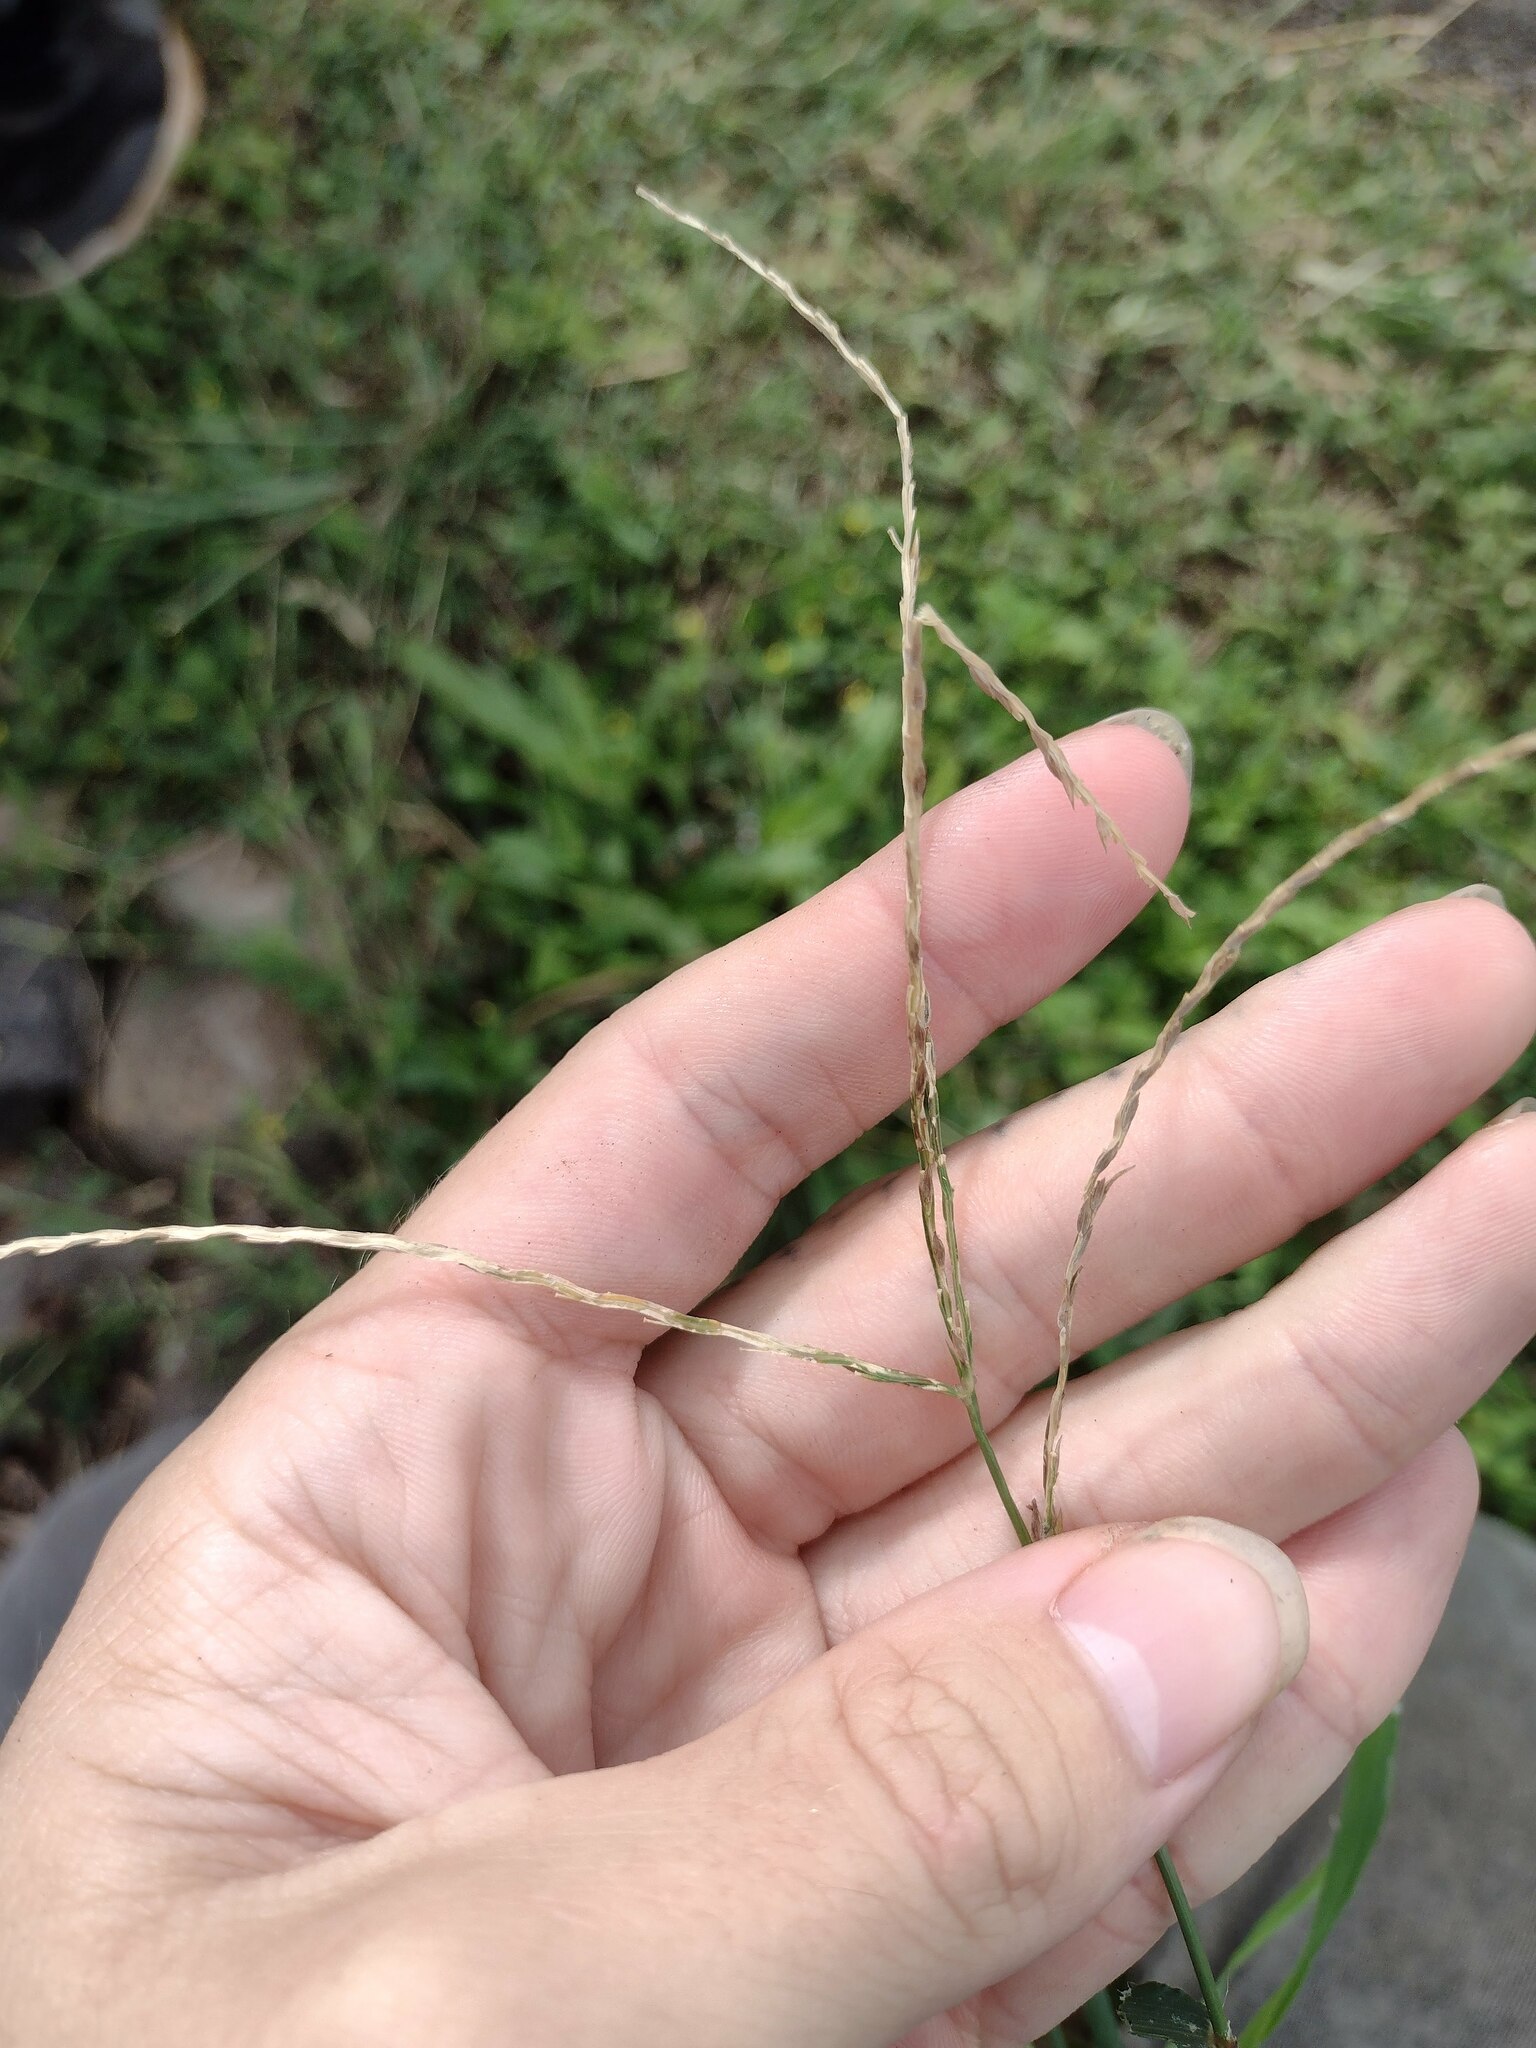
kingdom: Plantae
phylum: Tracheophyta
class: Liliopsida
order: Poales
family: Poaceae
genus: Digitaria
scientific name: Digitaria ciliaris
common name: Tropical finger-grass
